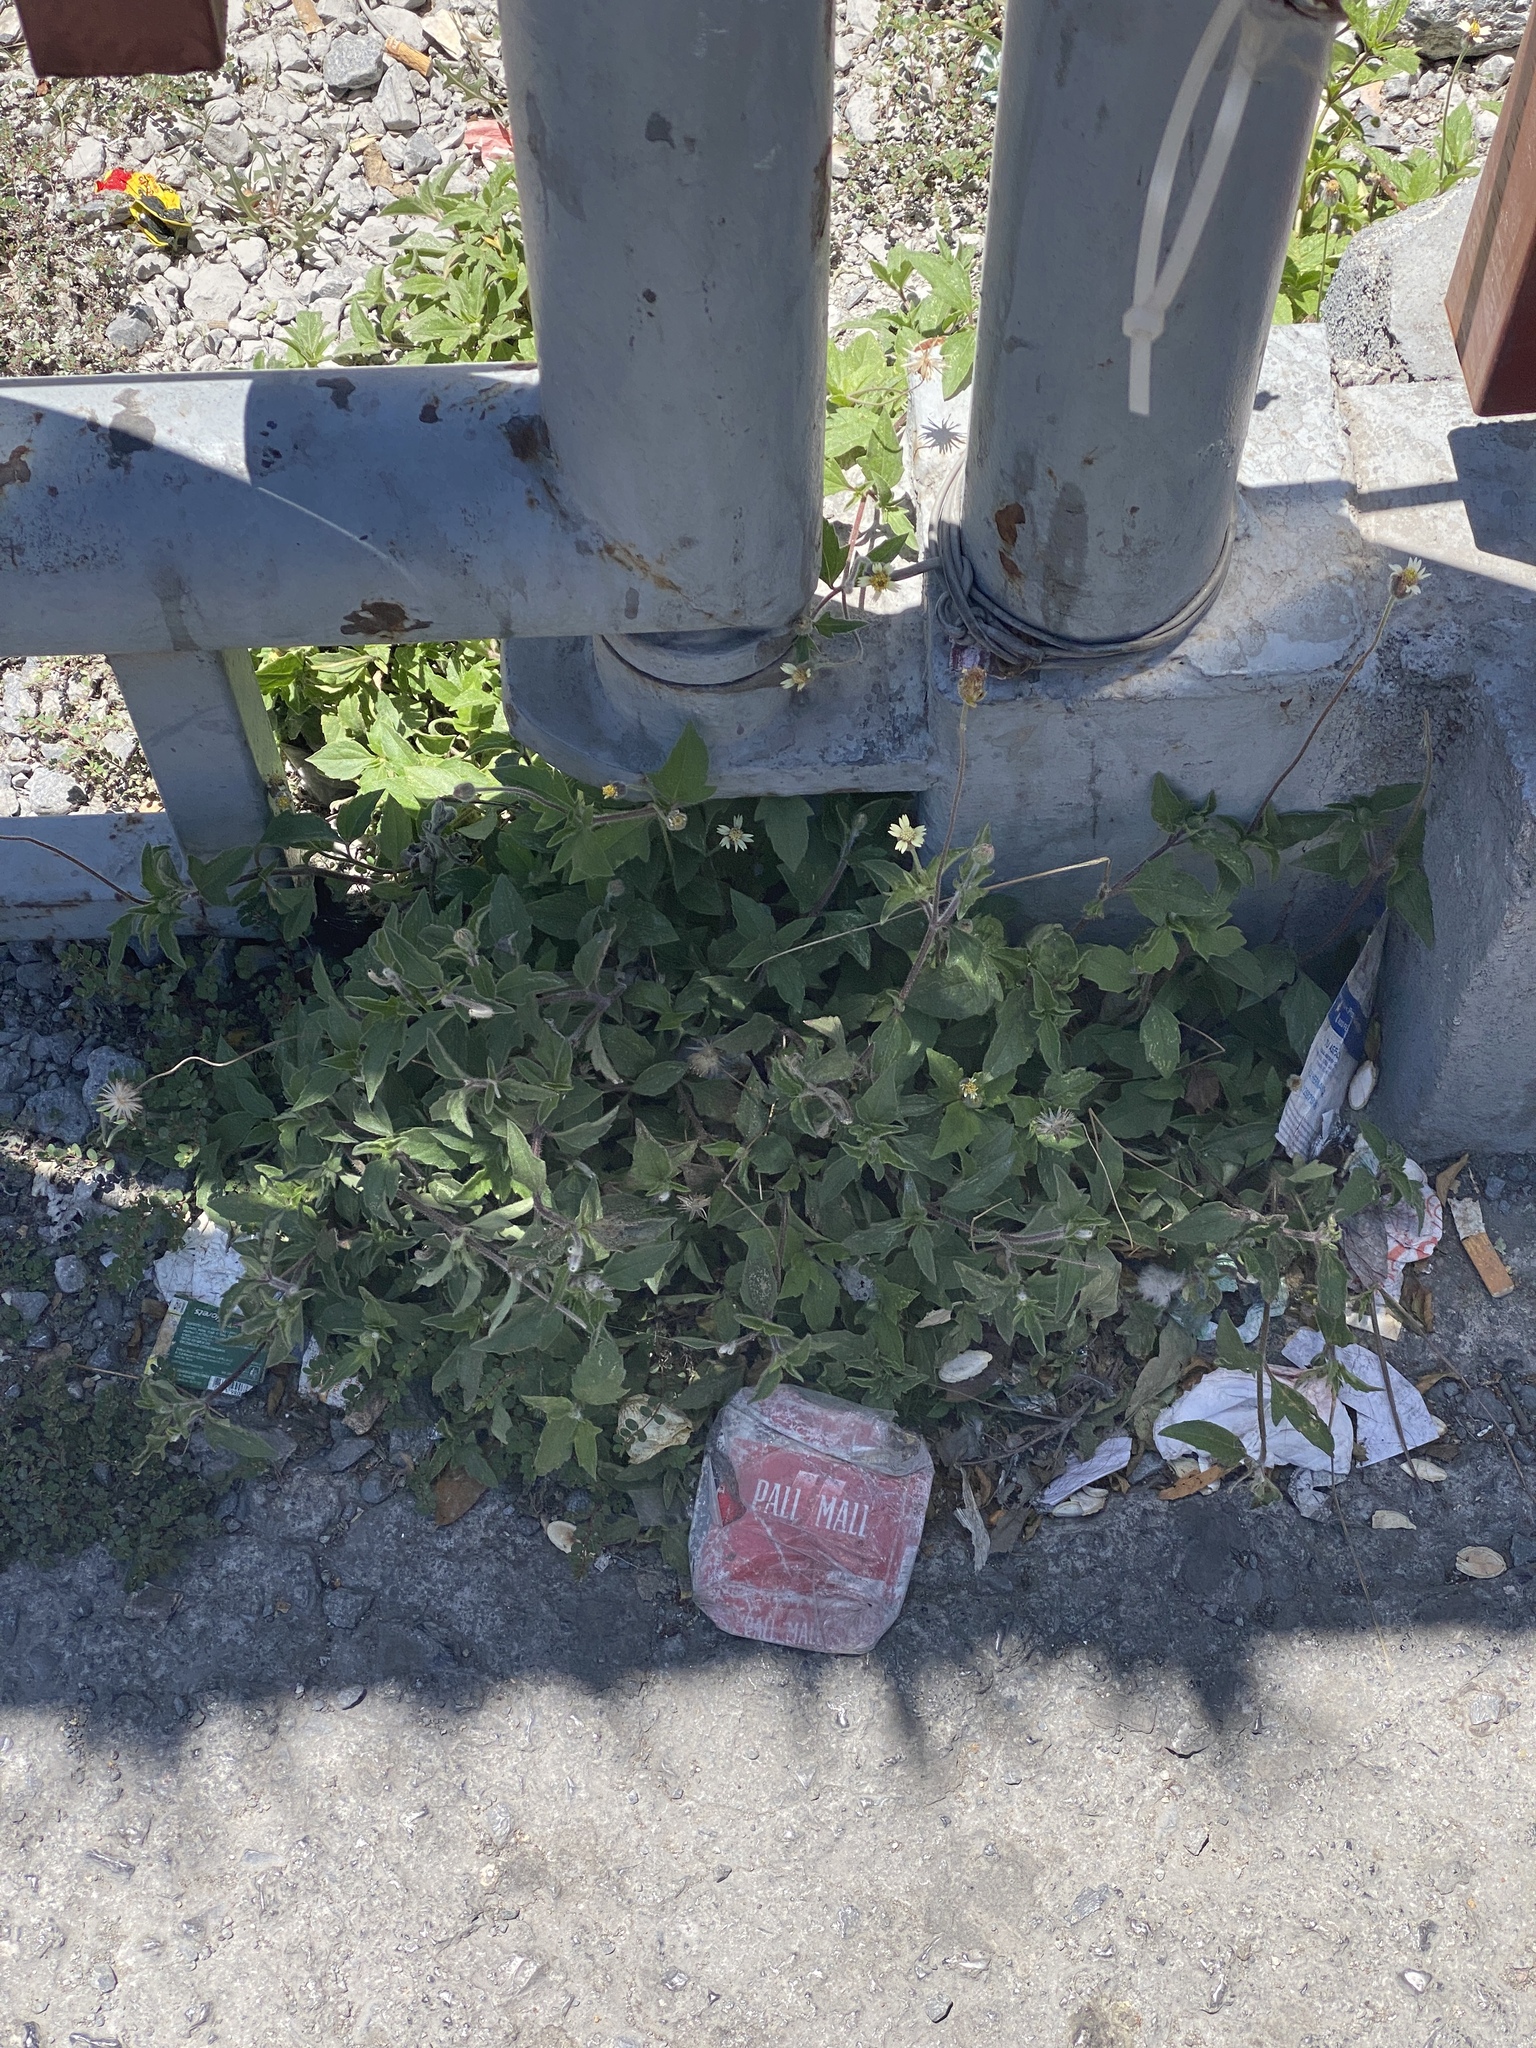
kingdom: Plantae
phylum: Tracheophyta
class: Magnoliopsida
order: Asterales
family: Asteraceae
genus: Tridax
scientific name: Tridax procumbens
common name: Coatbuttons
